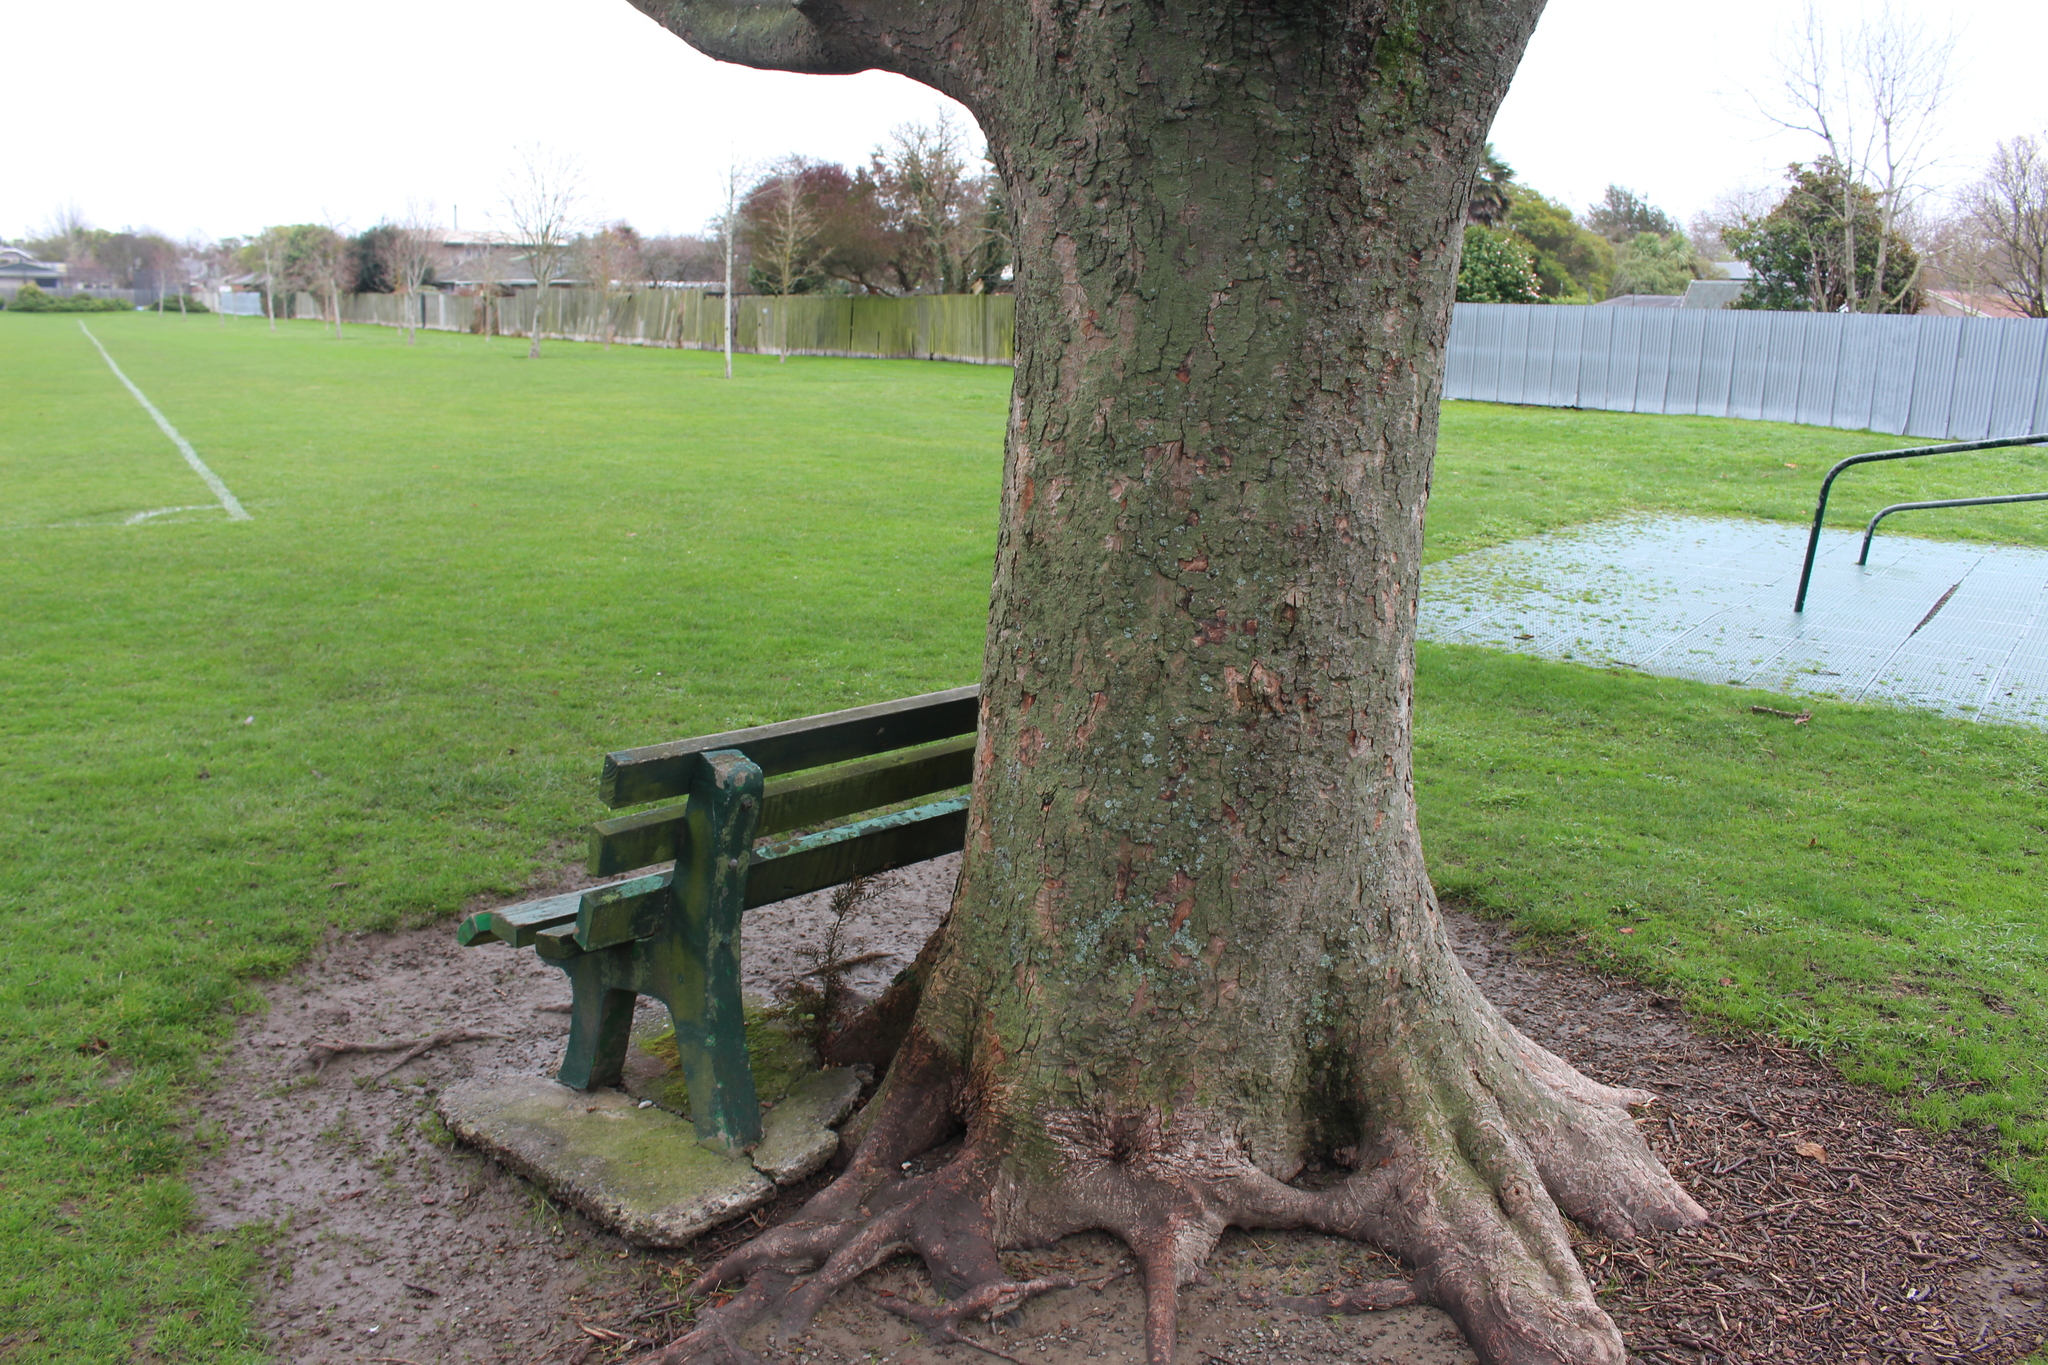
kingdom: Plantae
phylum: Tracheophyta
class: Pinopsida
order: Pinales
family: Podocarpaceae
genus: Podocarpus
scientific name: Podocarpus totara
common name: Totara
